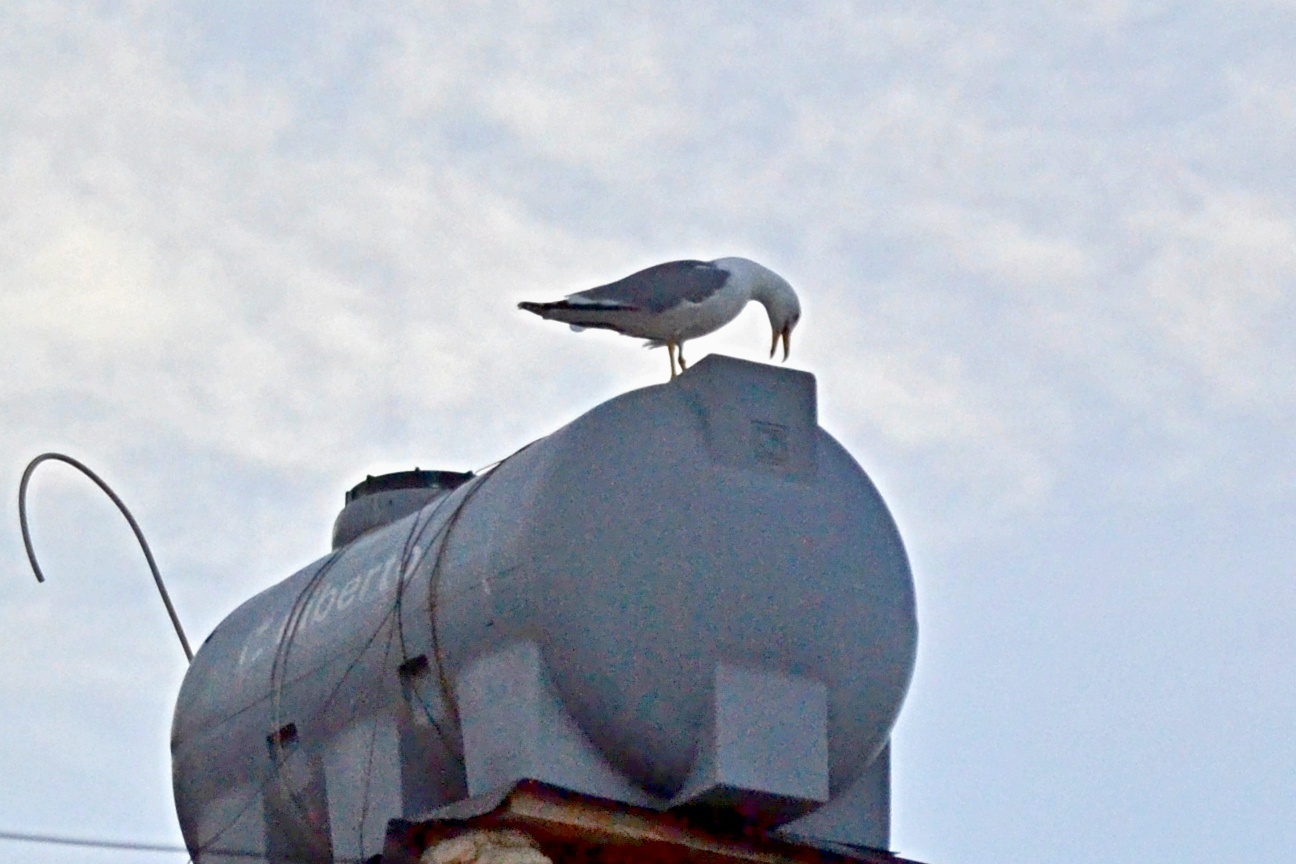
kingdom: Animalia
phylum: Chordata
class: Aves
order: Charadriiformes
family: Laridae
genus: Larus
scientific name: Larus michahellis
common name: Yellow-legged gull
